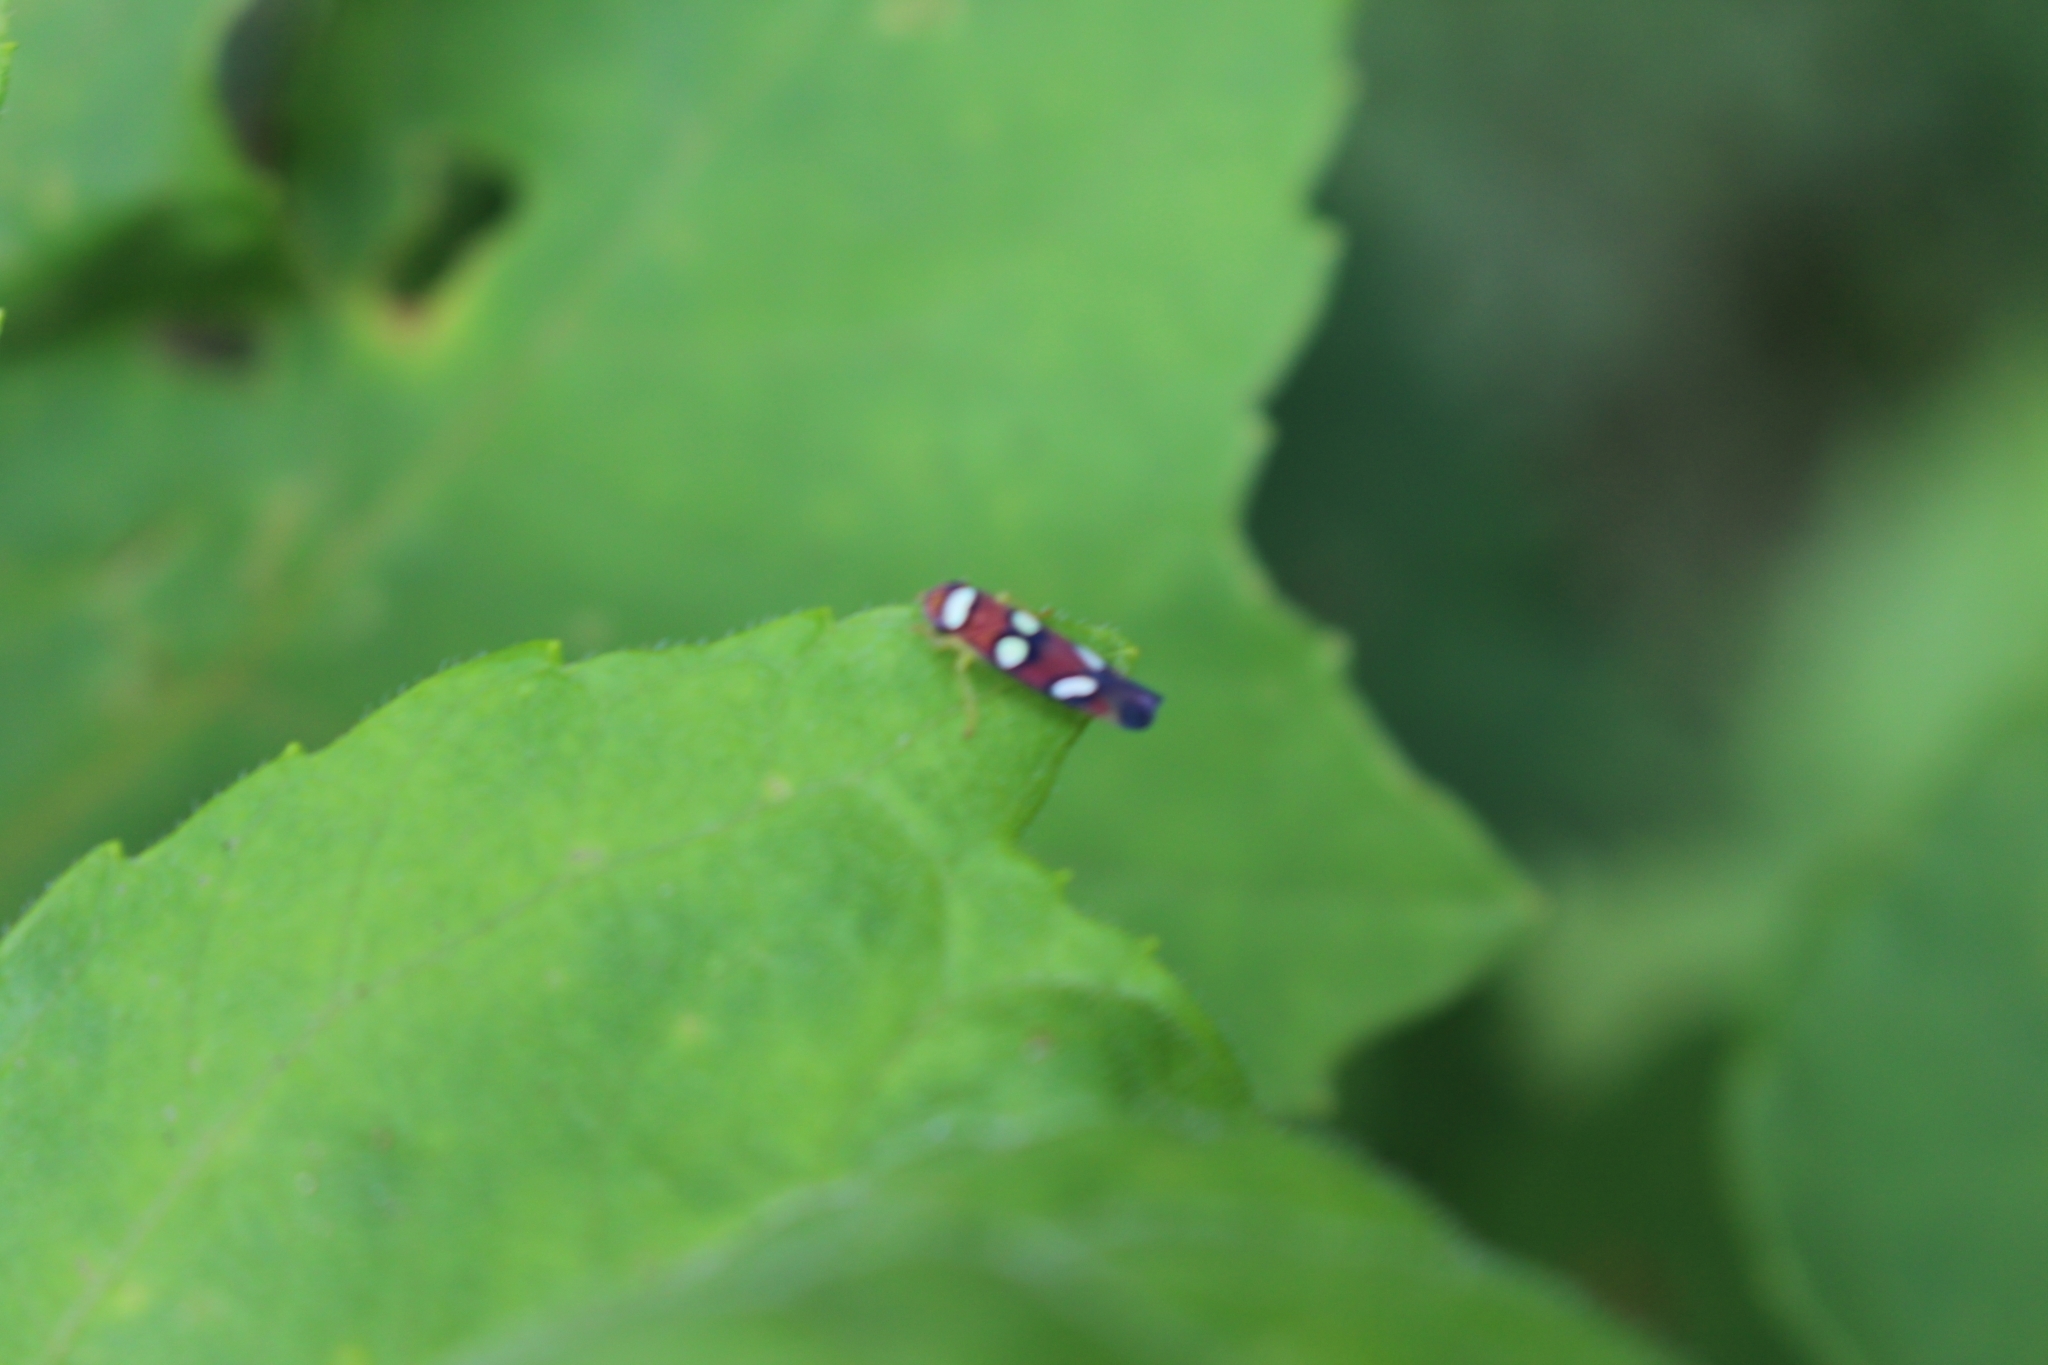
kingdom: Animalia
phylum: Arthropoda
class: Insecta
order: Hemiptera
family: Cicadellidae
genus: Erythrogonia
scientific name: Erythrogonia areolata
